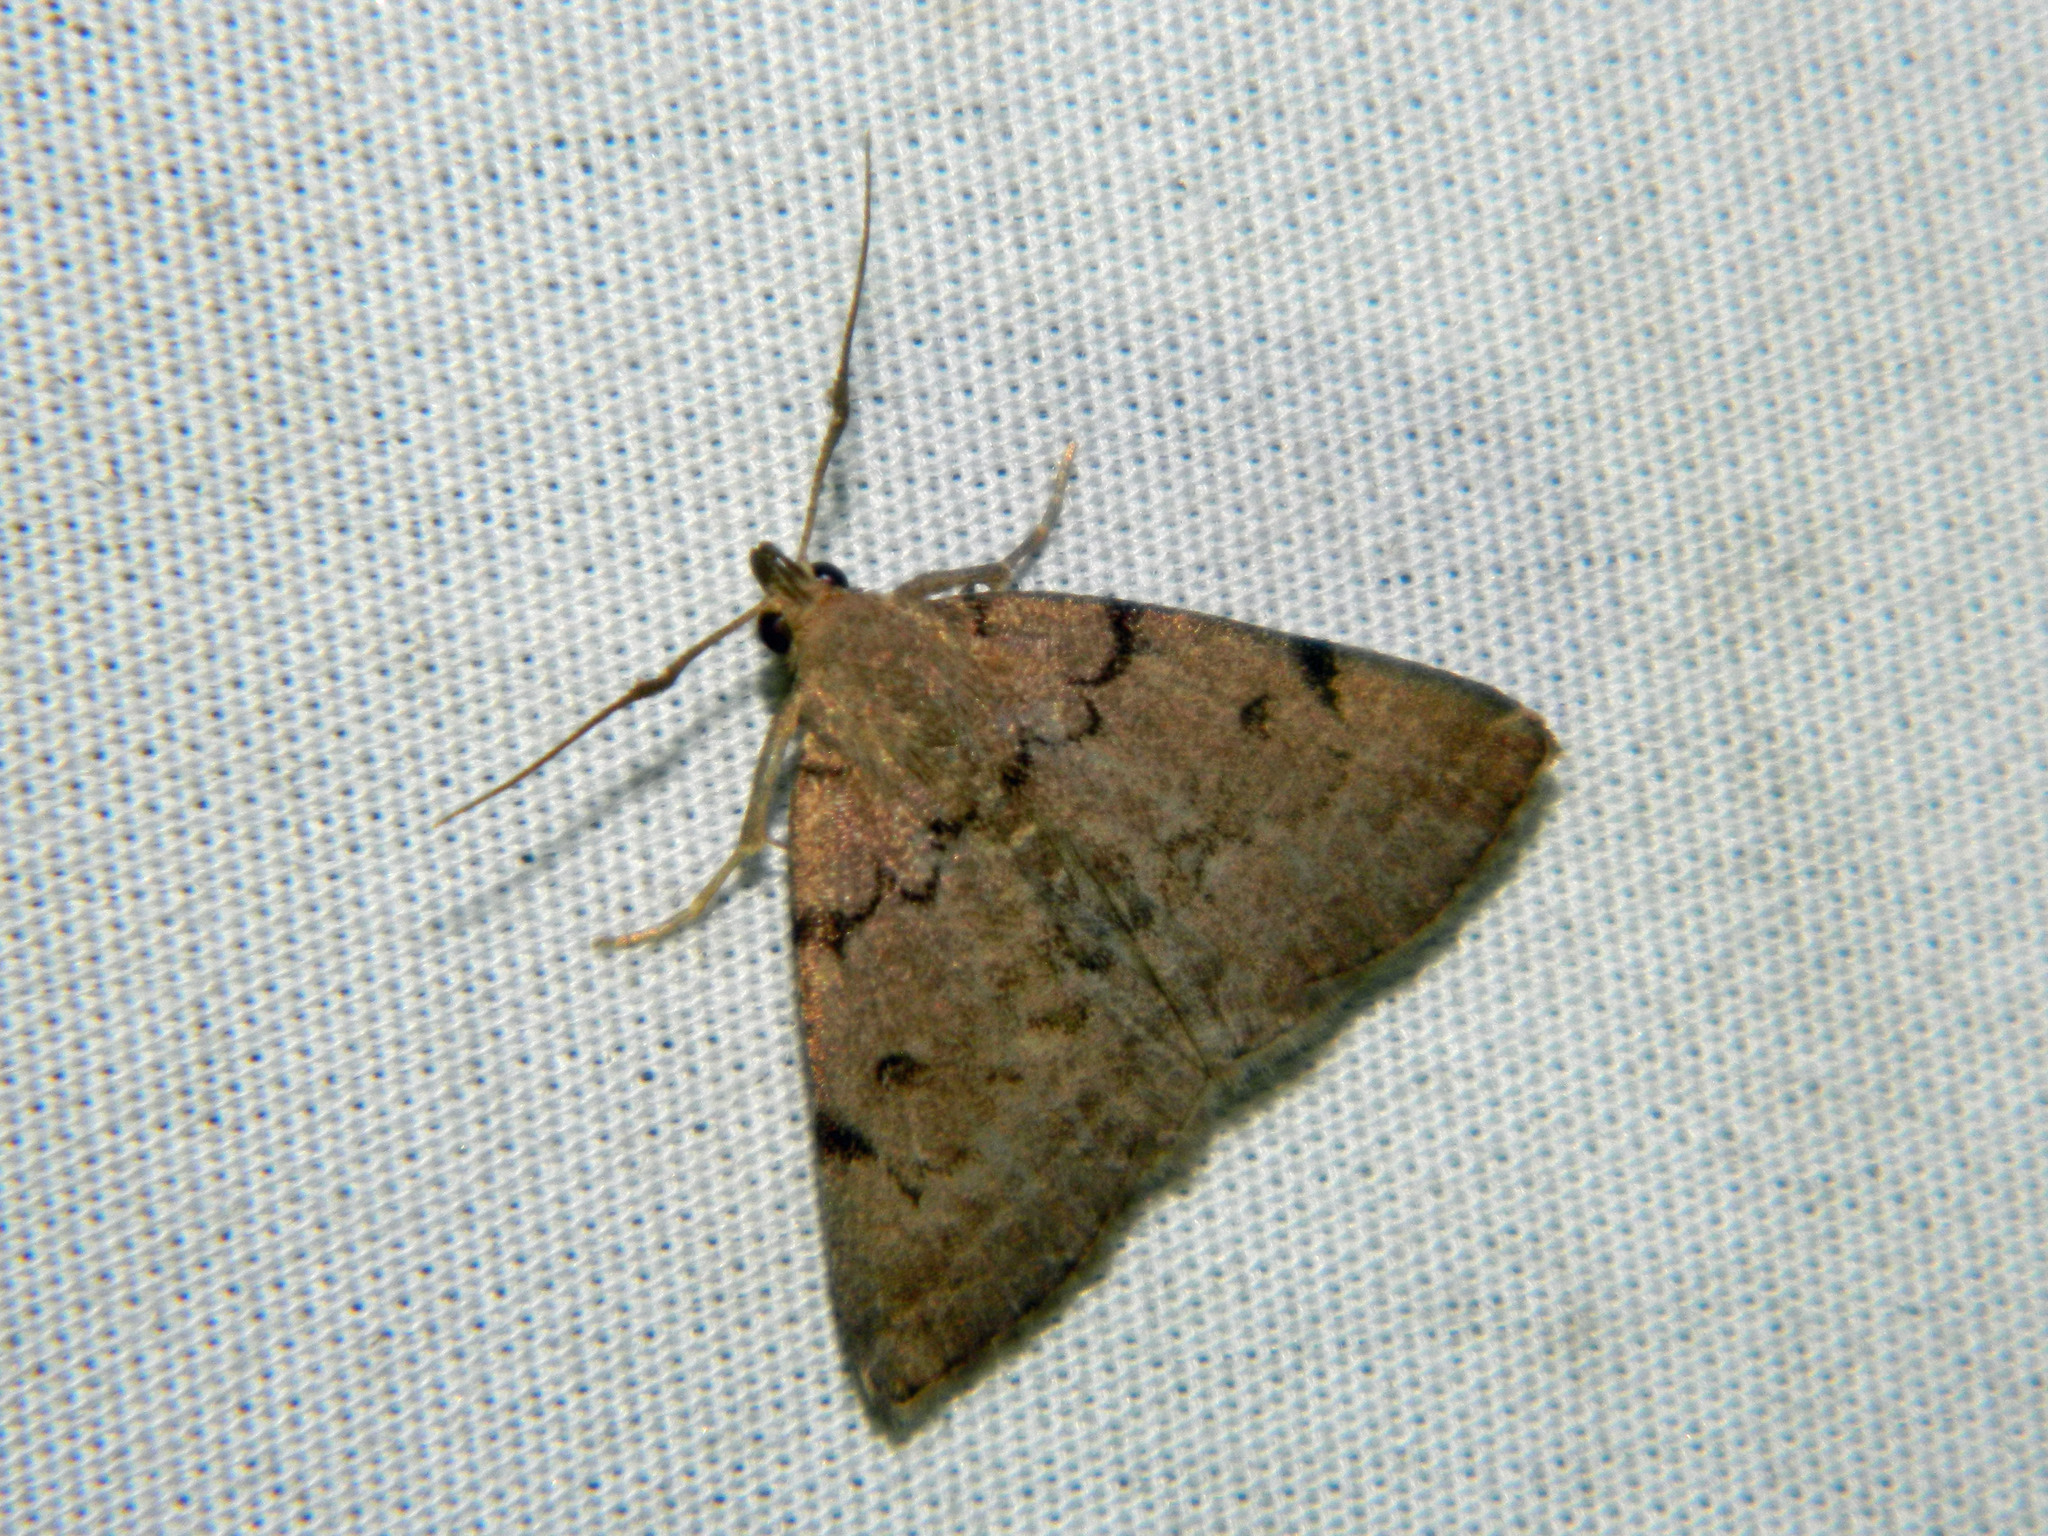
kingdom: Animalia
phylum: Arthropoda
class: Insecta
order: Lepidoptera
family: Erebidae
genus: Zanclognatha
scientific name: Zanclognatha dentata
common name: Toothed fan-foot
